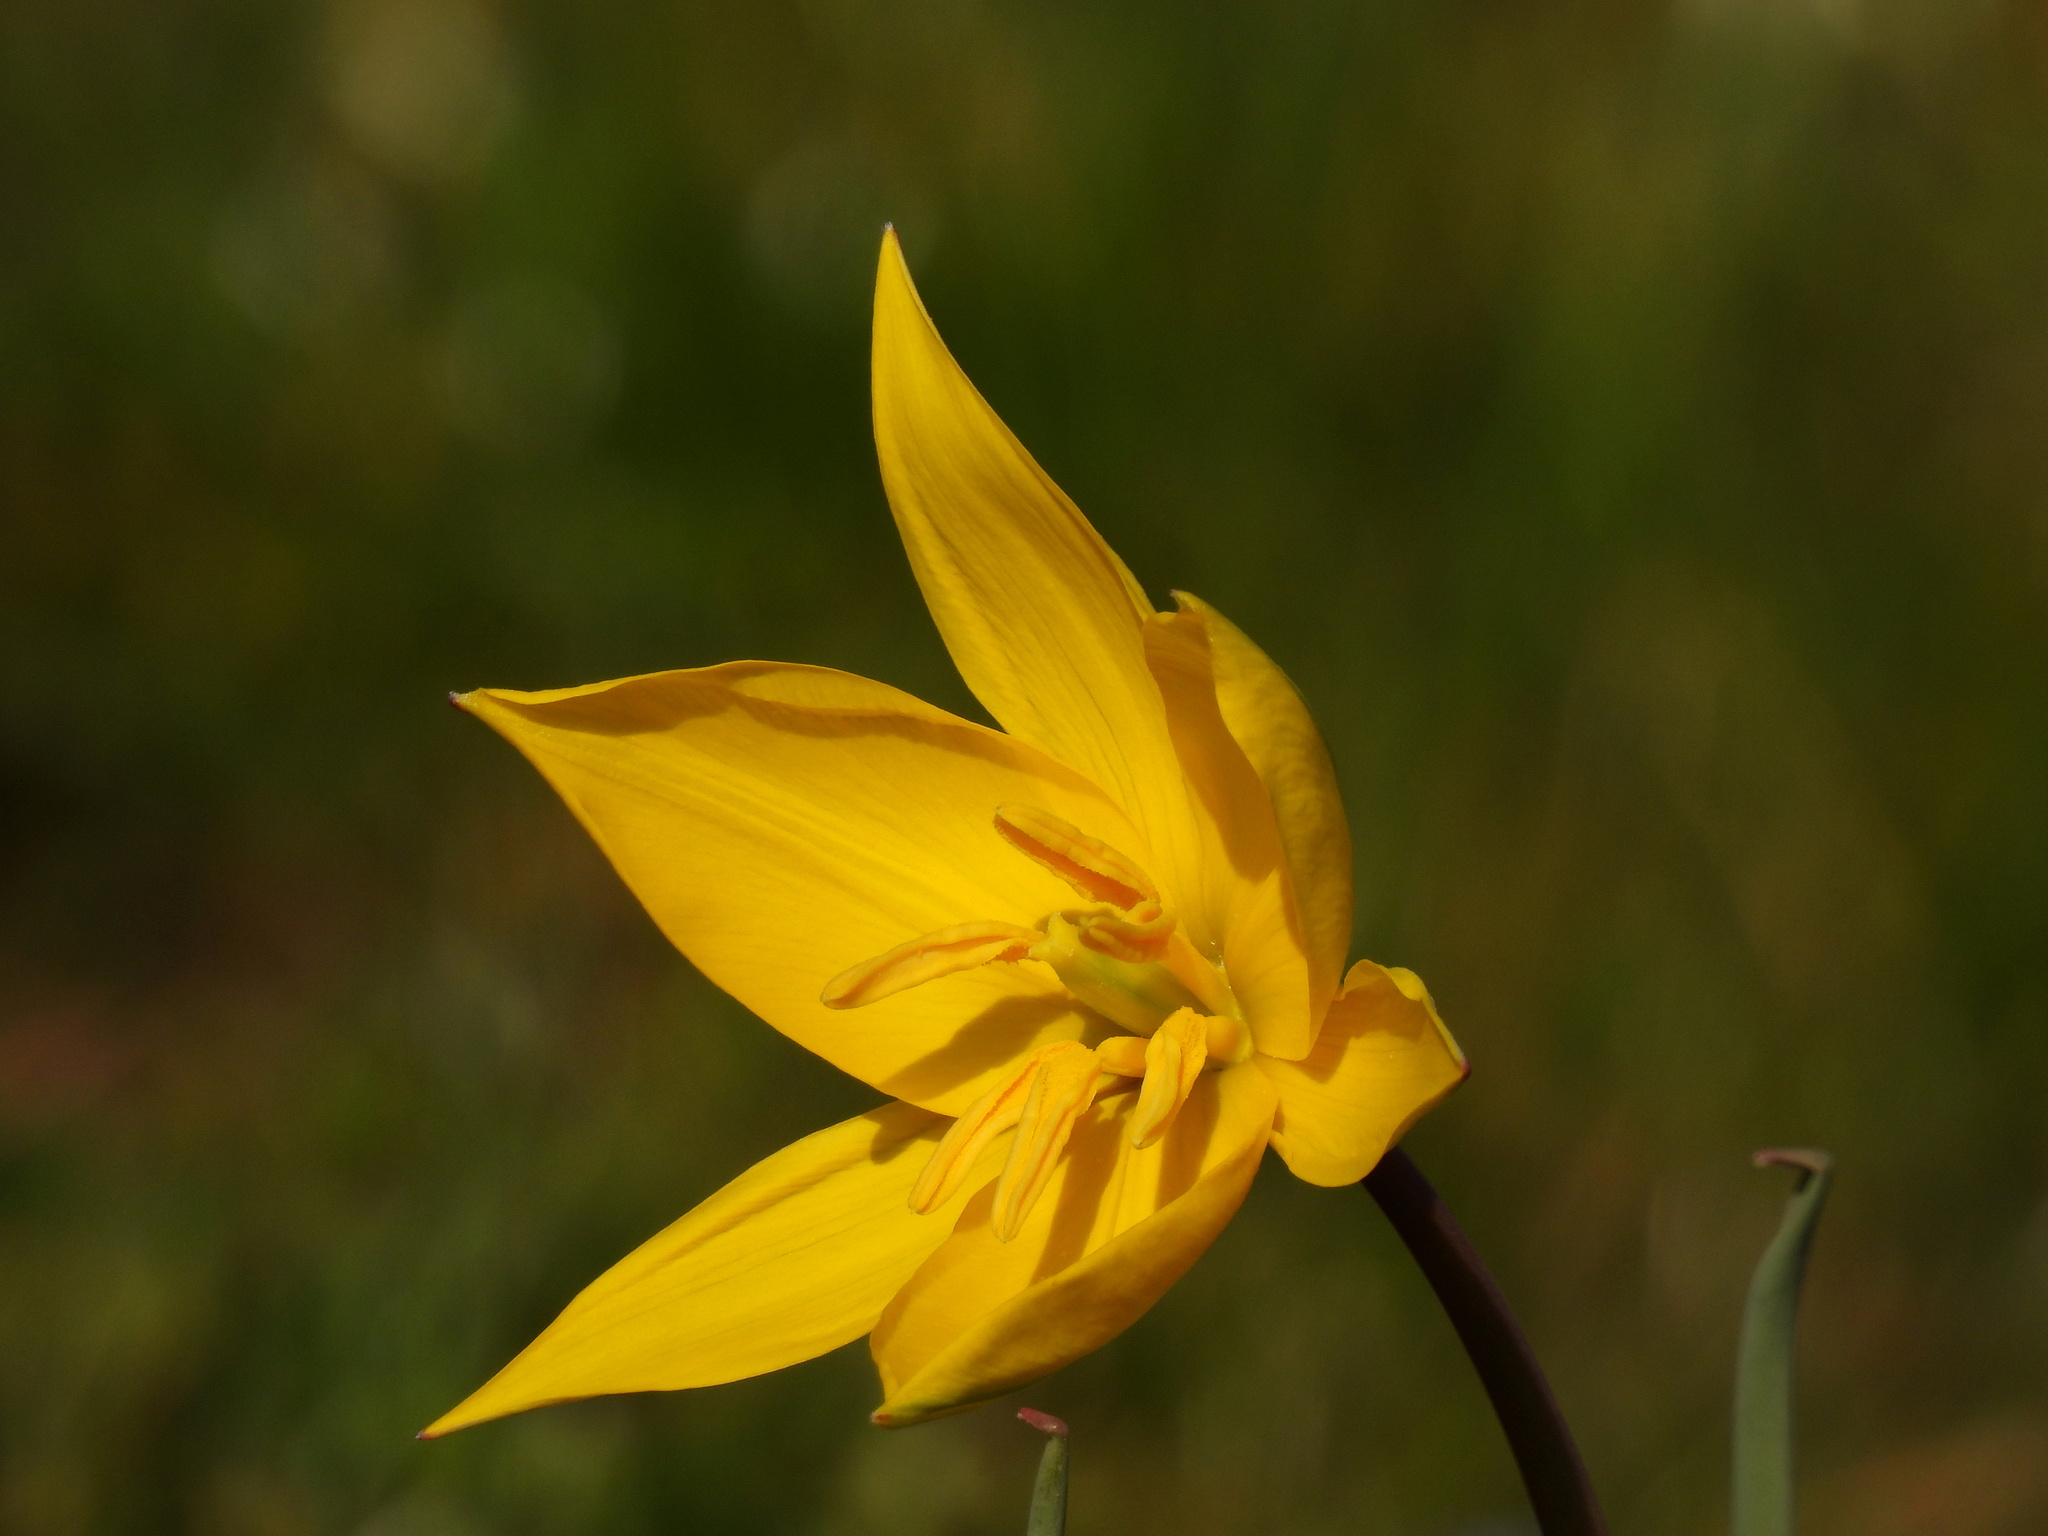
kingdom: Plantae
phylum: Tracheophyta
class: Liliopsida
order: Liliales
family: Liliaceae
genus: Tulipa
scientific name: Tulipa sylvestris
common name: Wild tulip
